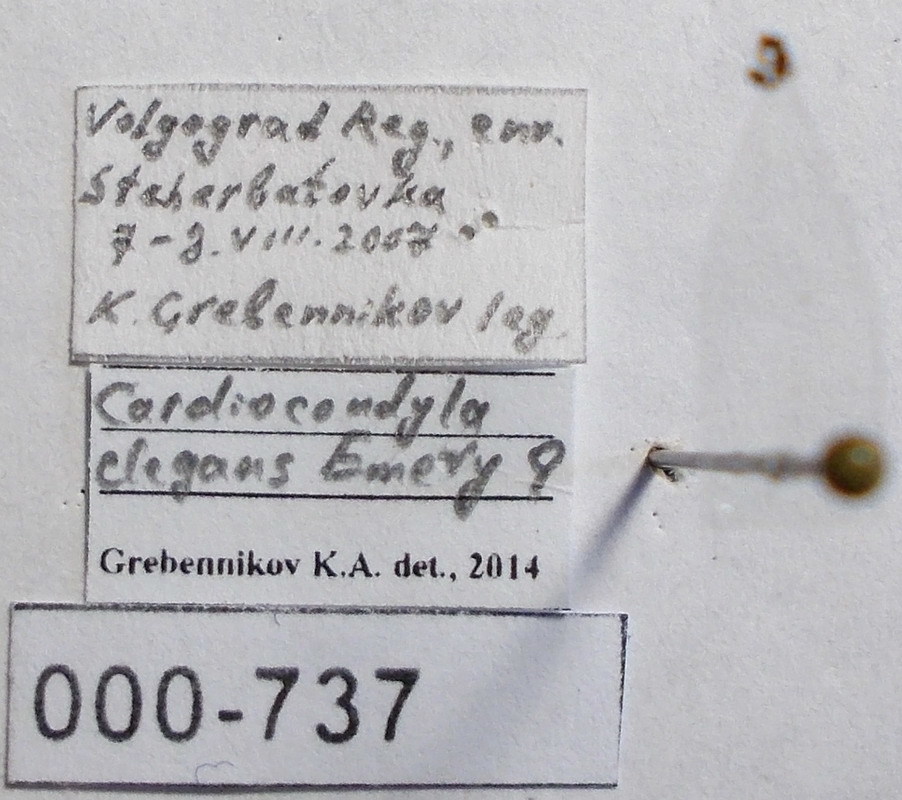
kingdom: Animalia
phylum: Arthropoda
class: Insecta
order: Hymenoptera
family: Formicidae
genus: Cardiocondyla
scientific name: Cardiocondyla ulianini
